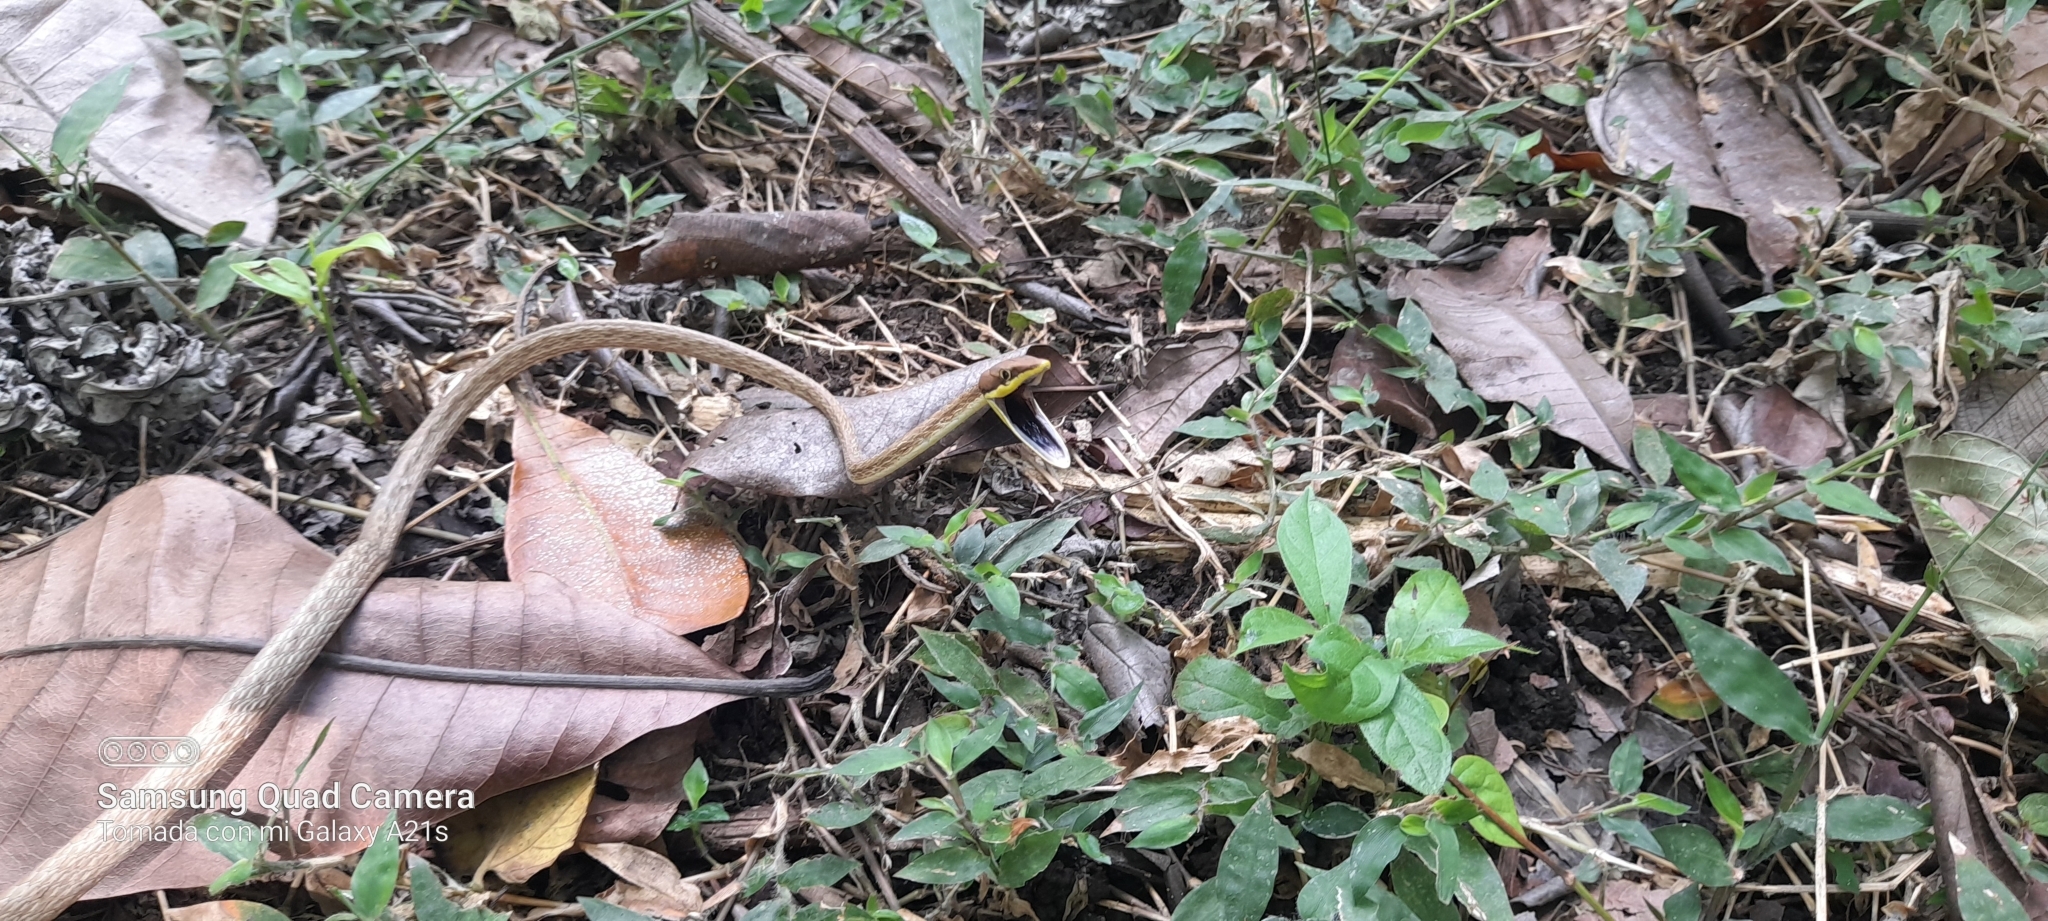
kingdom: Animalia
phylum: Chordata
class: Squamata
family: Colubridae
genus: Oxybelis
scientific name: Oxybelis vittatus
